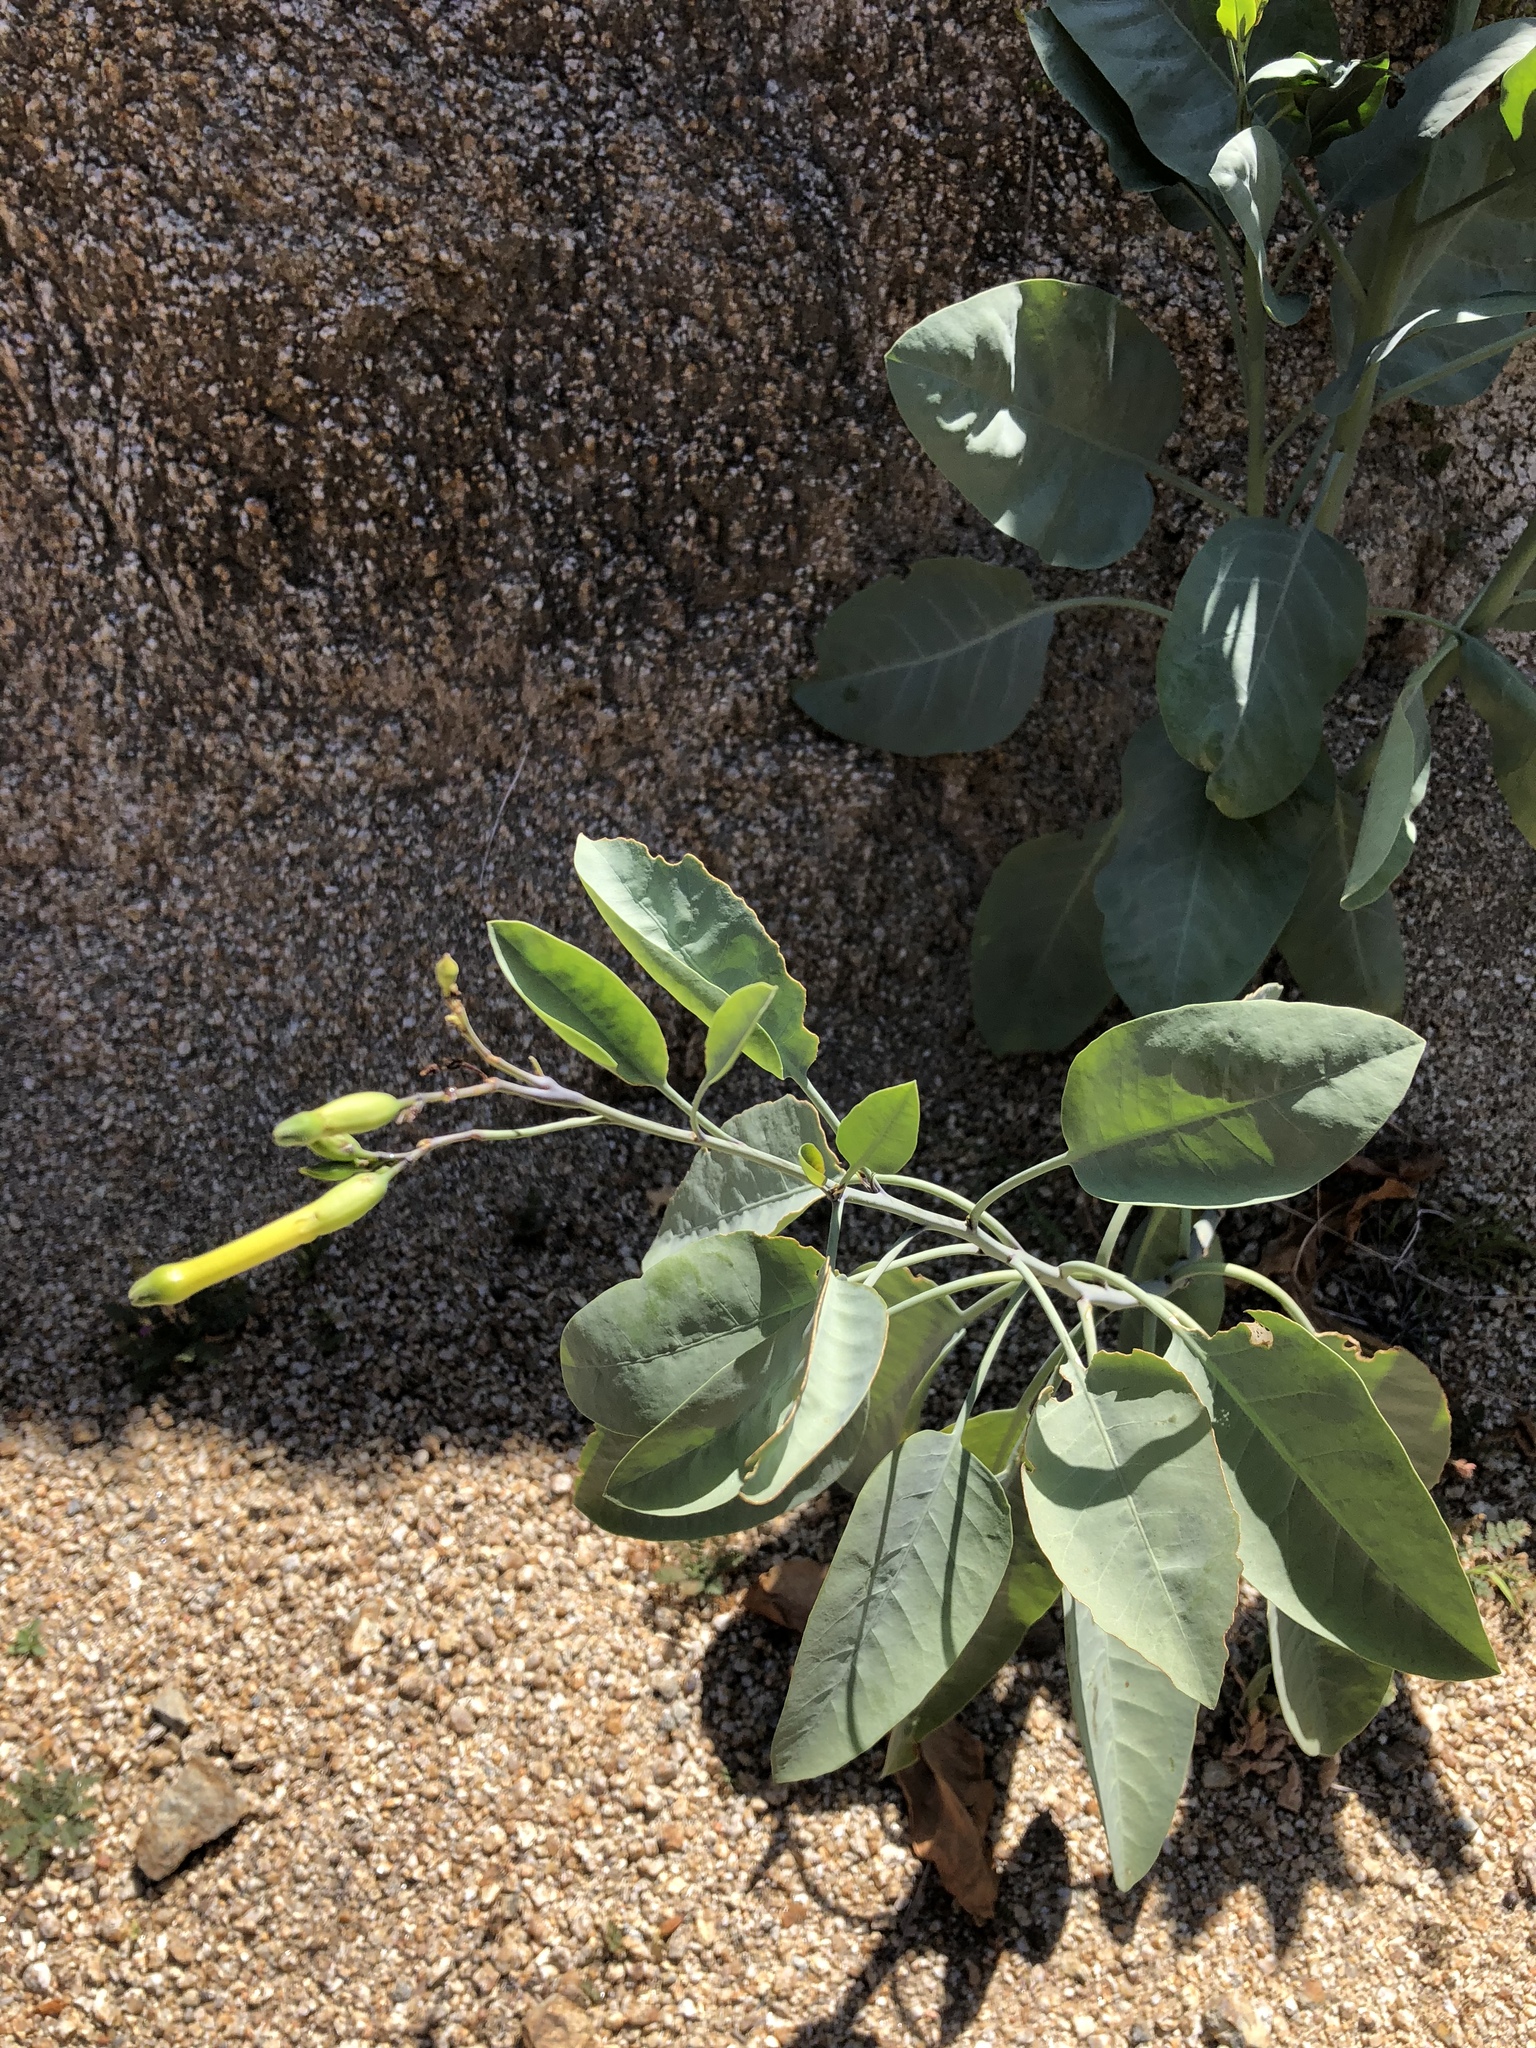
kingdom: Plantae
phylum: Tracheophyta
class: Magnoliopsida
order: Solanales
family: Solanaceae
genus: Nicotiana
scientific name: Nicotiana glauca
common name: Tree tobacco
